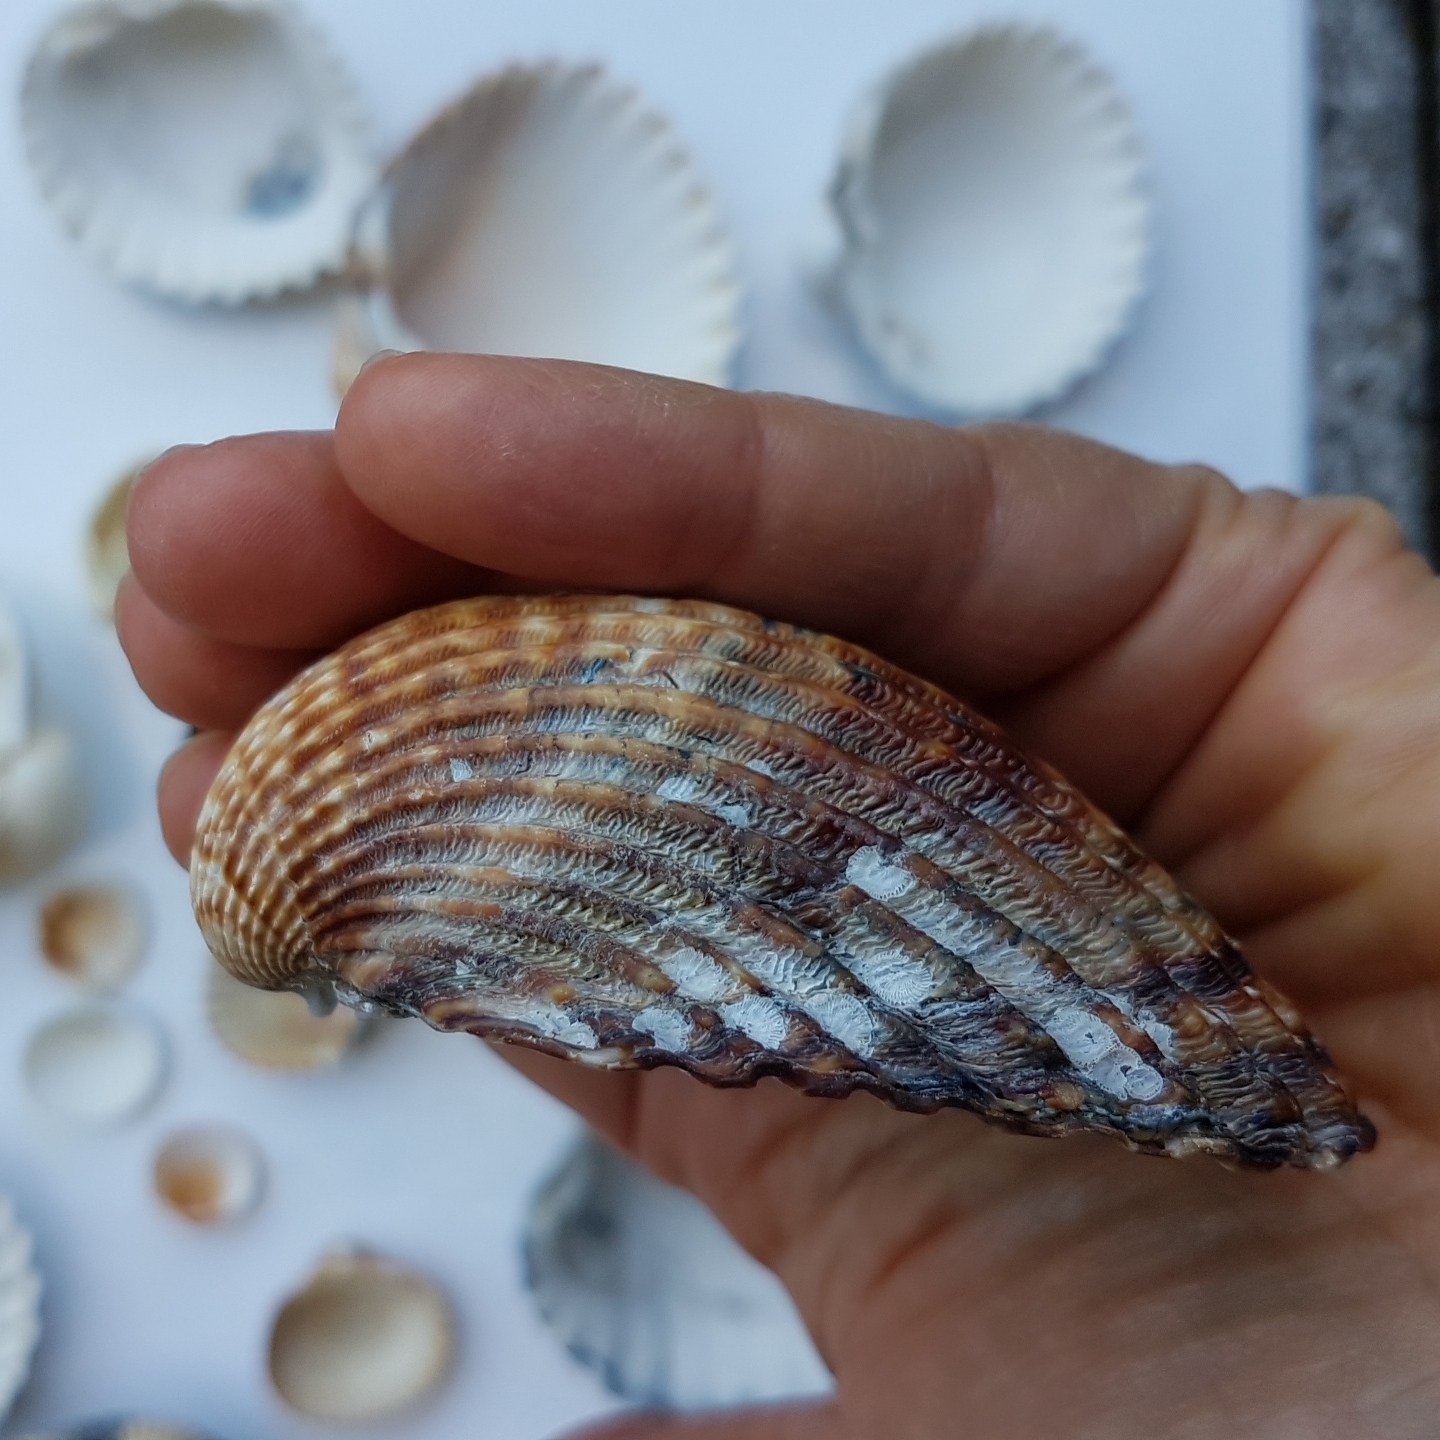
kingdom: Animalia
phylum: Mollusca
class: Bivalvia
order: Cardiida
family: Cardiidae
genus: Acanthocardia
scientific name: Acanthocardia tuberculata
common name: Rough cockle
